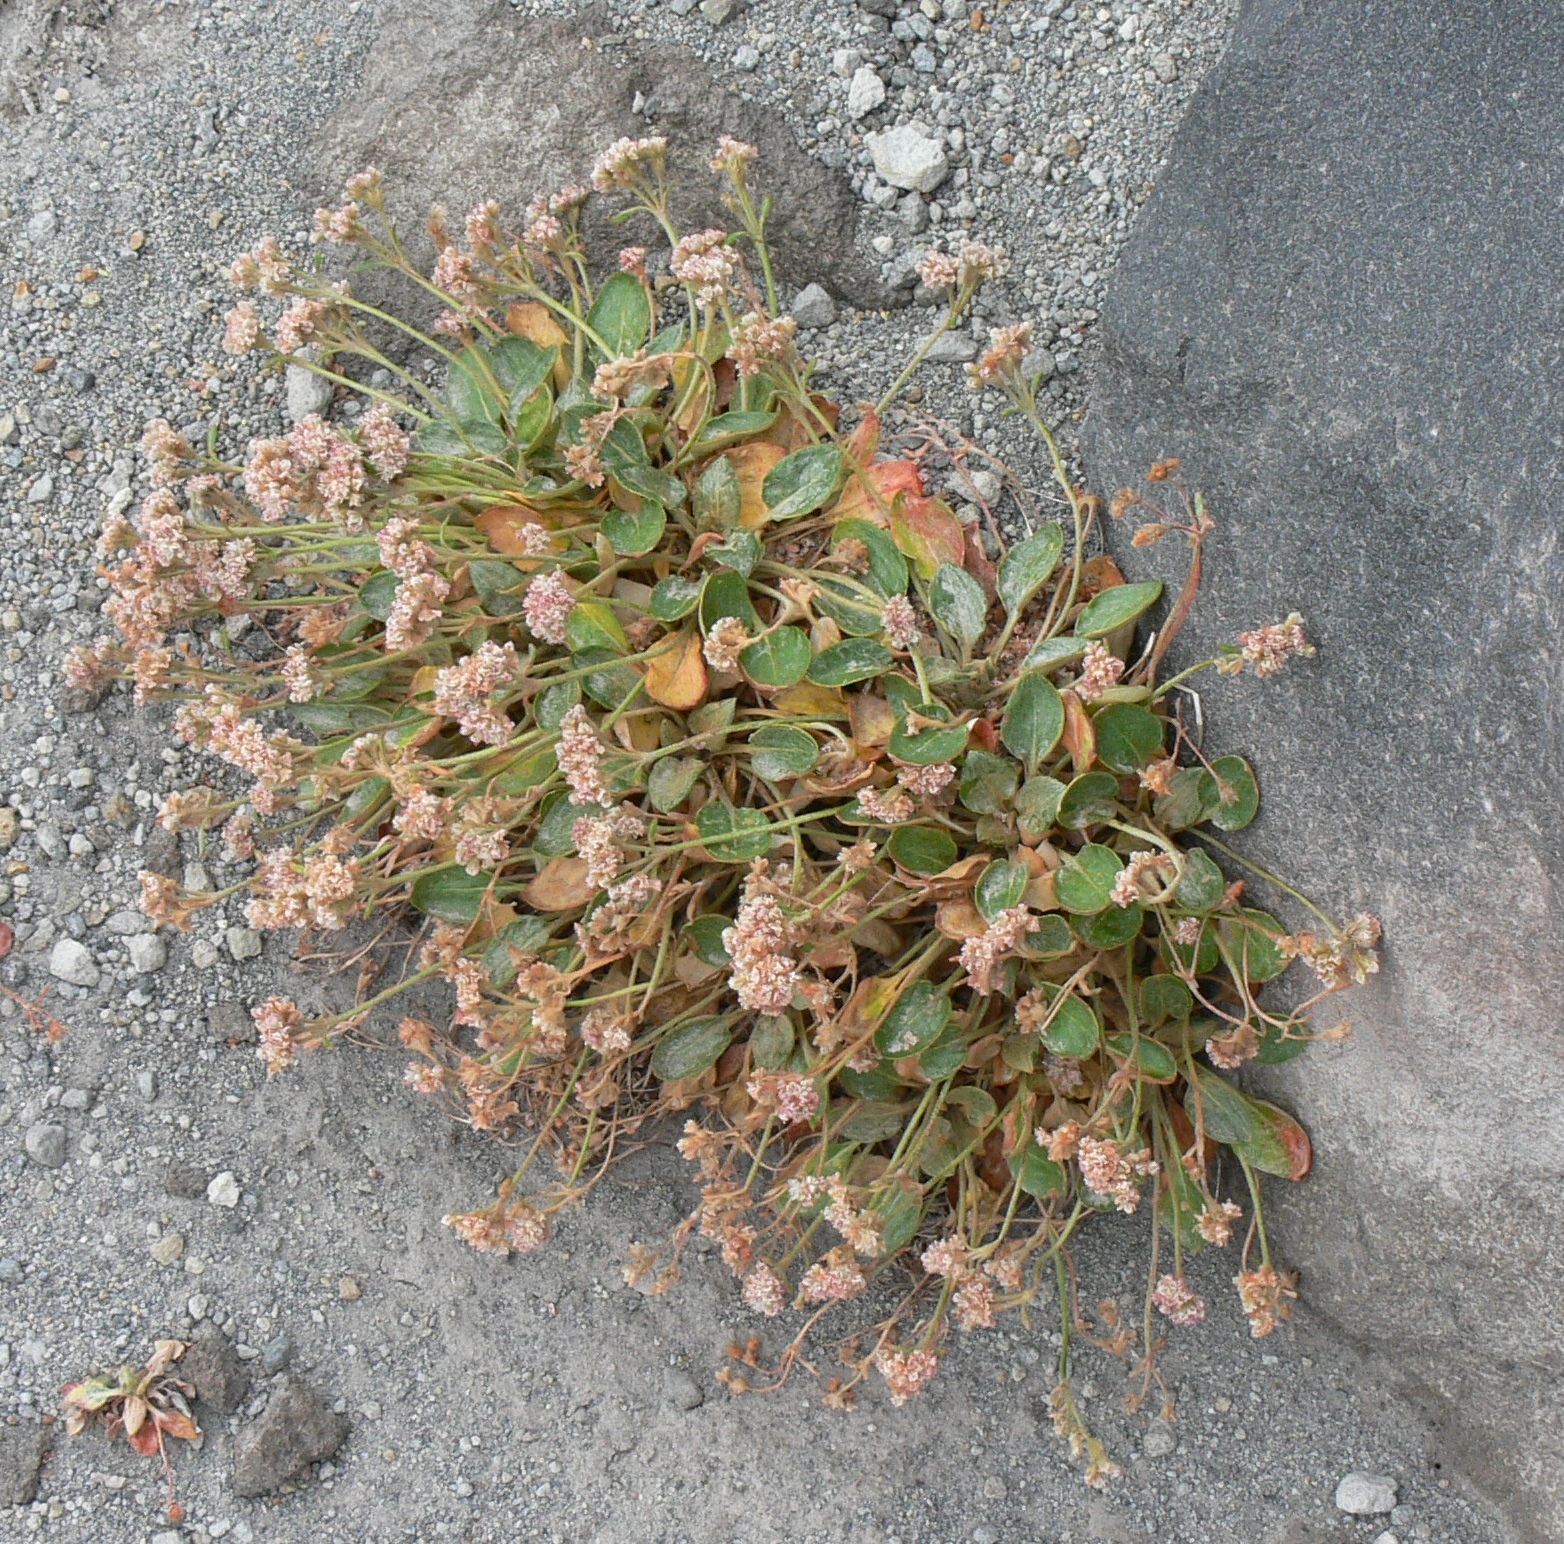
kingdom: Plantae
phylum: Tracheophyta
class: Magnoliopsida
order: Caryophyllales
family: Polygonaceae
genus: Eriogonum
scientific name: Eriogonum pyrolifolium
